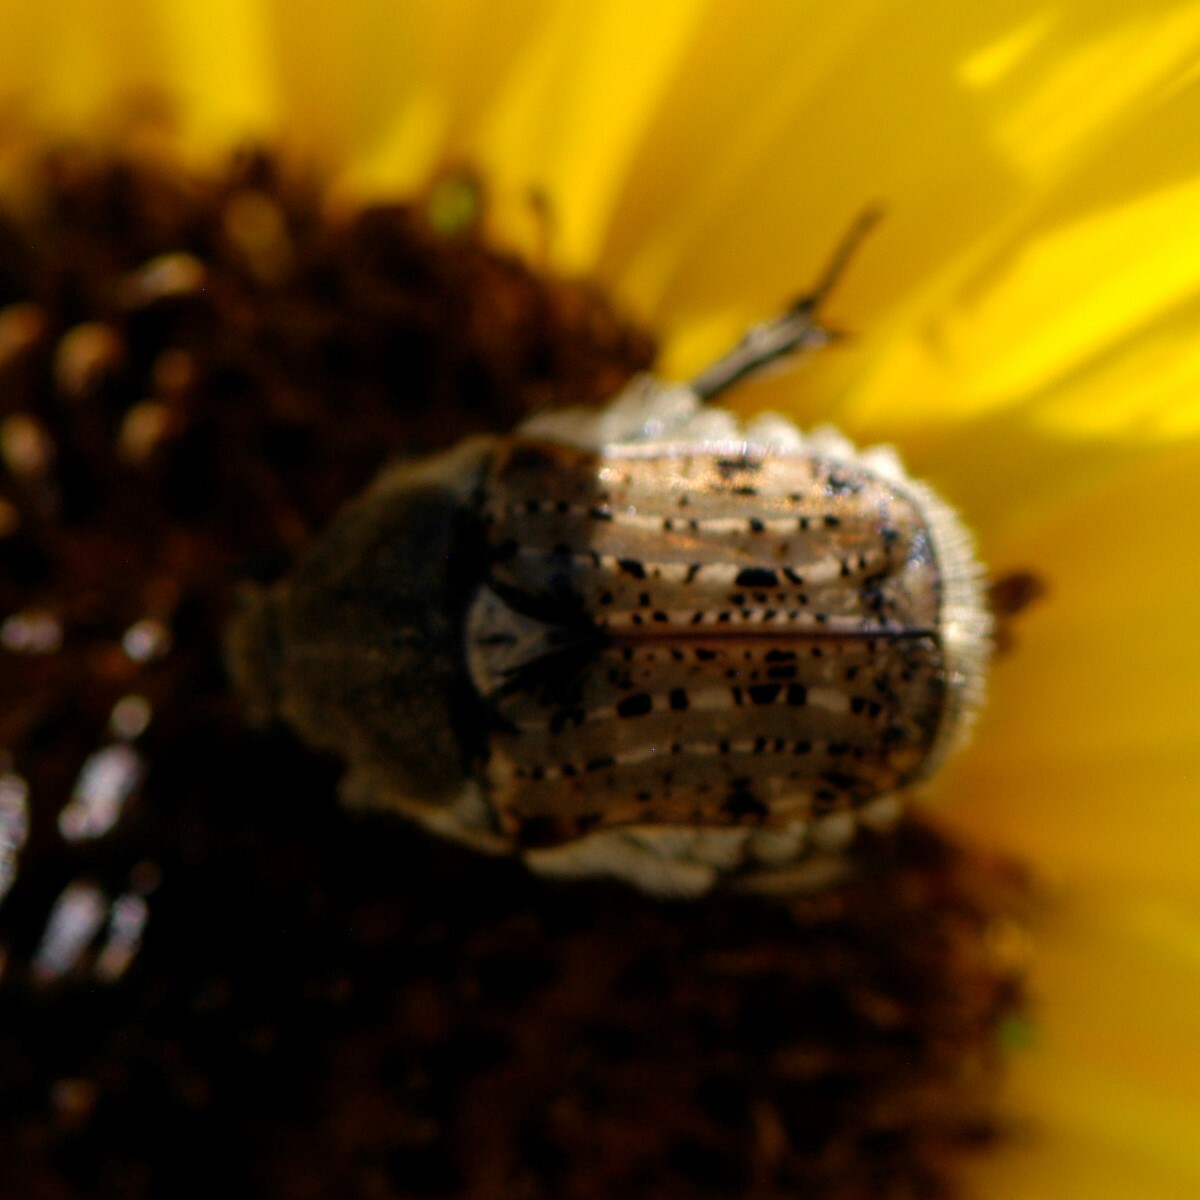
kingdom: Animalia
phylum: Arthropoda
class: Insecta
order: Coleoptera
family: Scarabaeidae
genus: Euphoria
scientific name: Euphoria inda
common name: Bumble flower beetle
